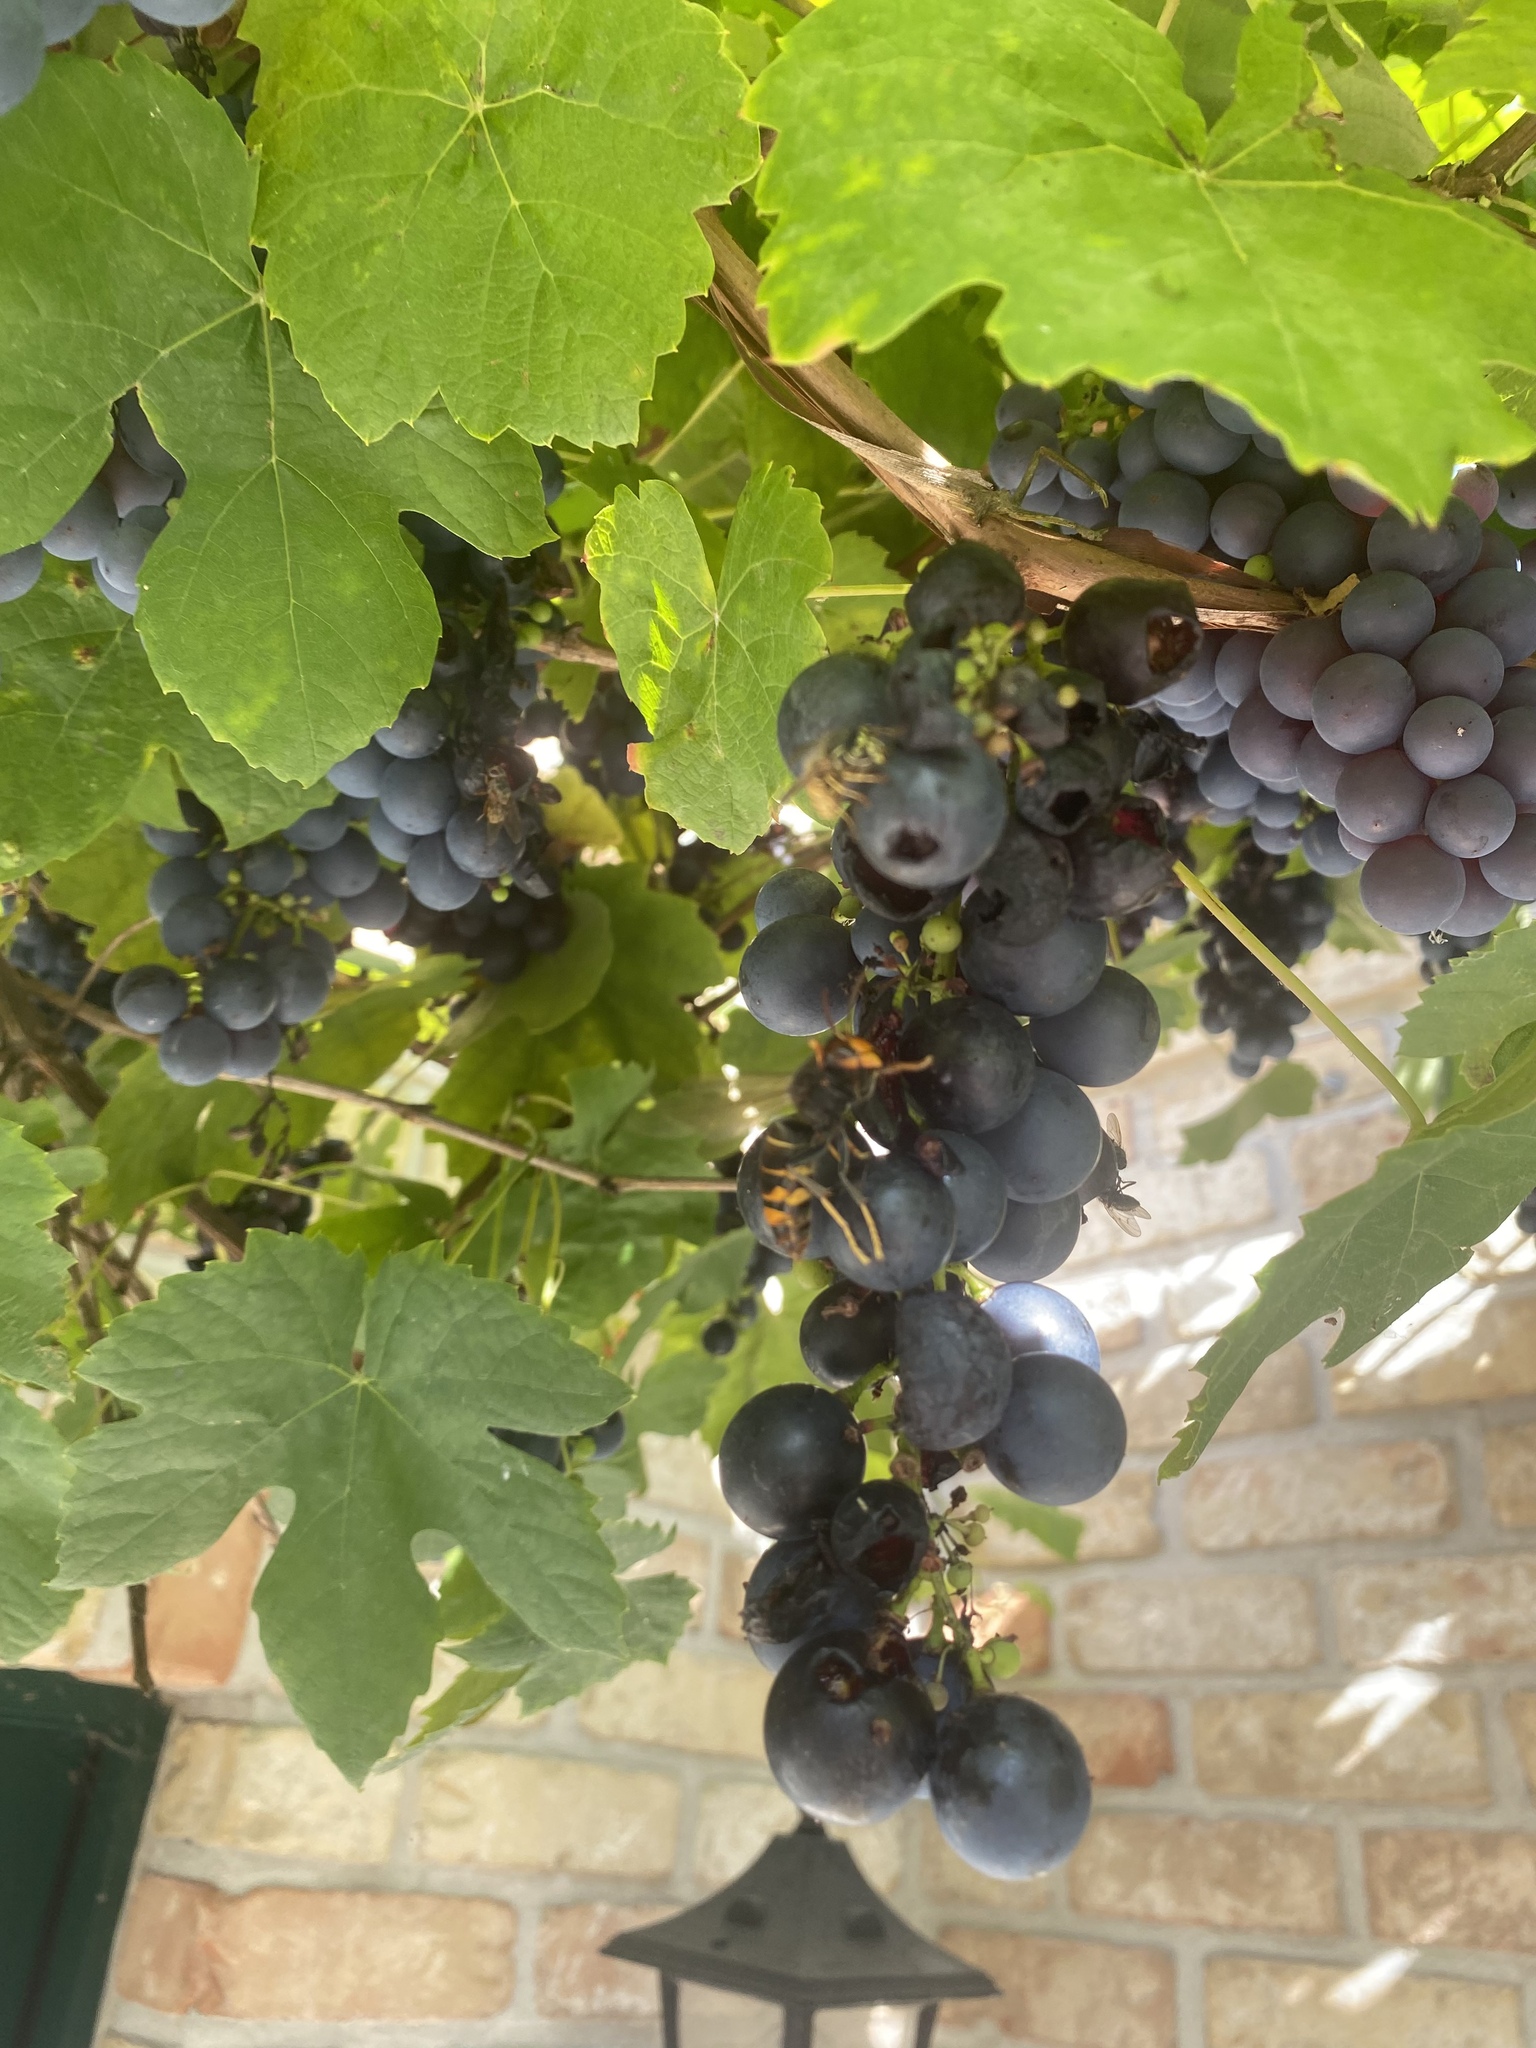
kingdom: Animalia
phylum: Arthropoda
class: Insecta
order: Hymenoptera
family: Vespidae
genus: Vespa
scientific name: Vespa velutina
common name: Asian hornet
